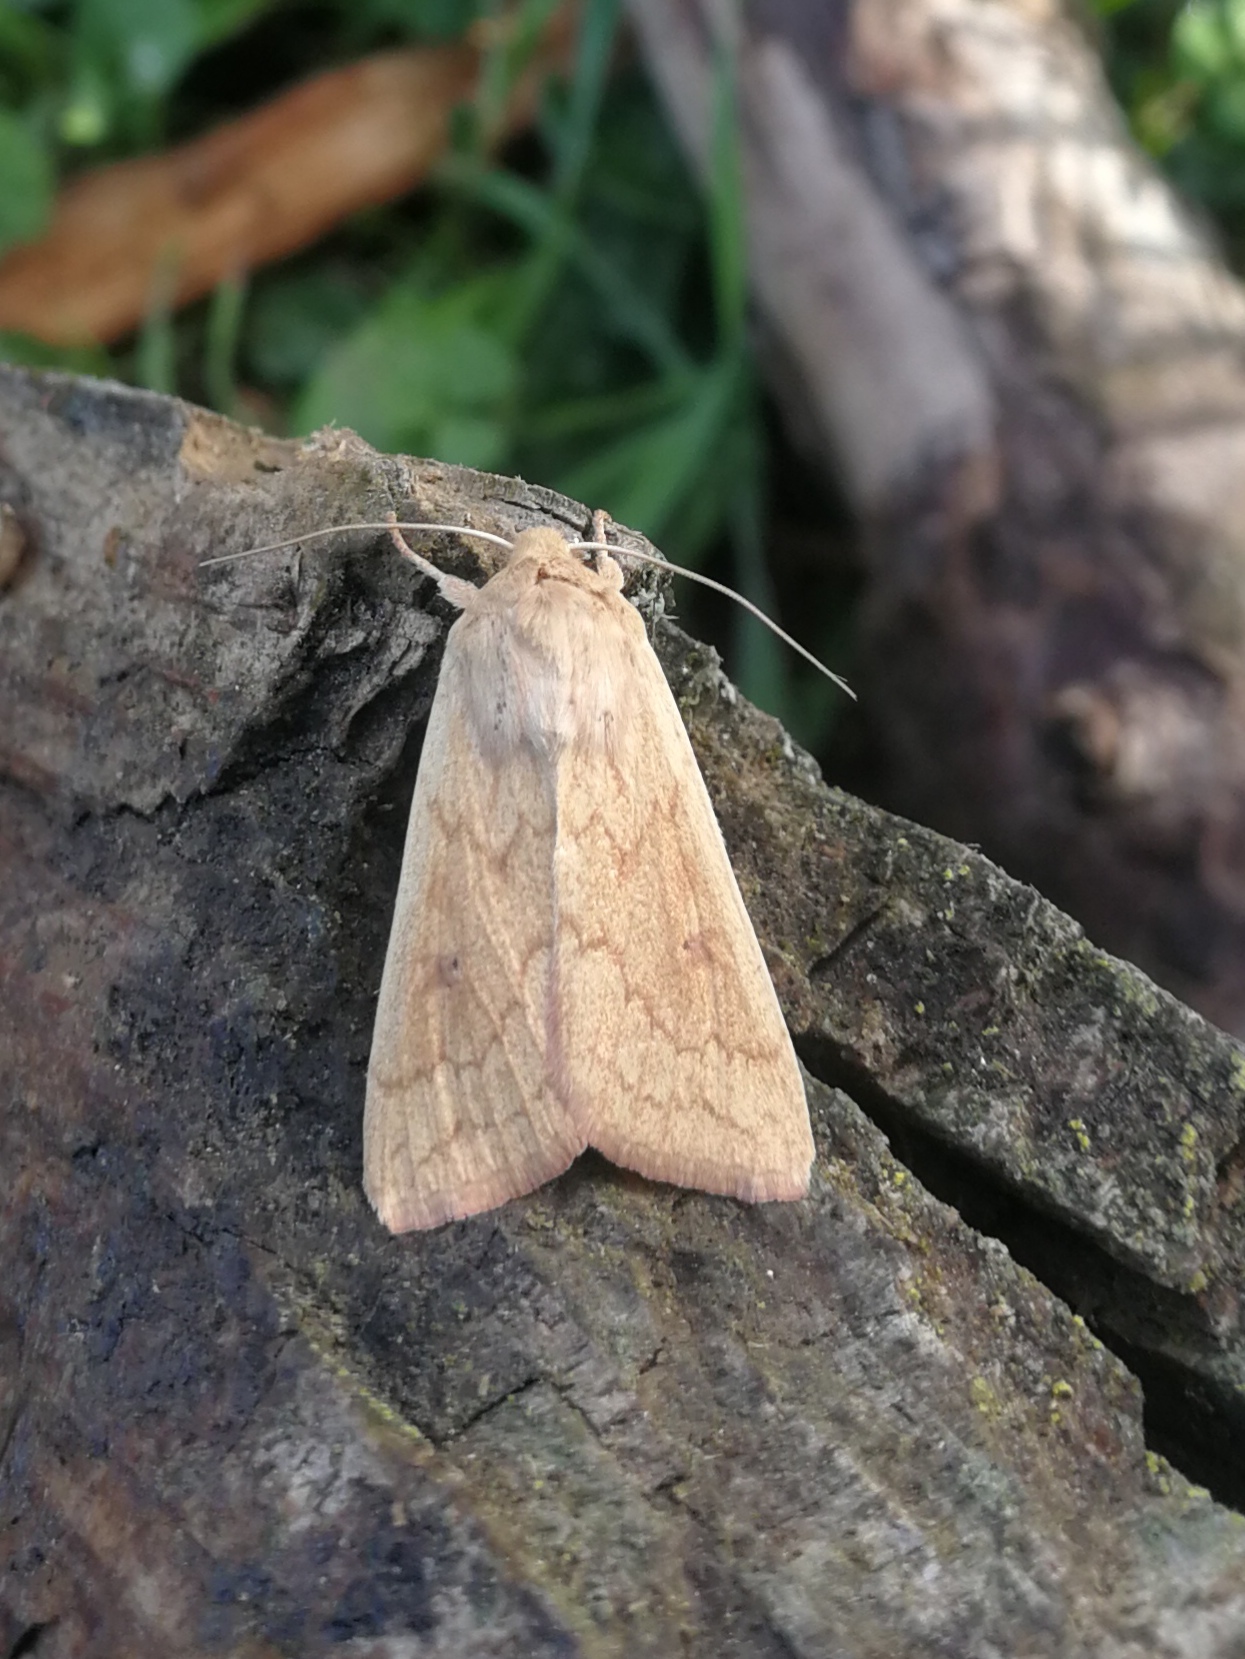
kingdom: Animalia
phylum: Arthropoda
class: Insecta
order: Lepidoptera
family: Noctuidae
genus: Mythimna
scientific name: Mythimna vitellina
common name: Delicate
